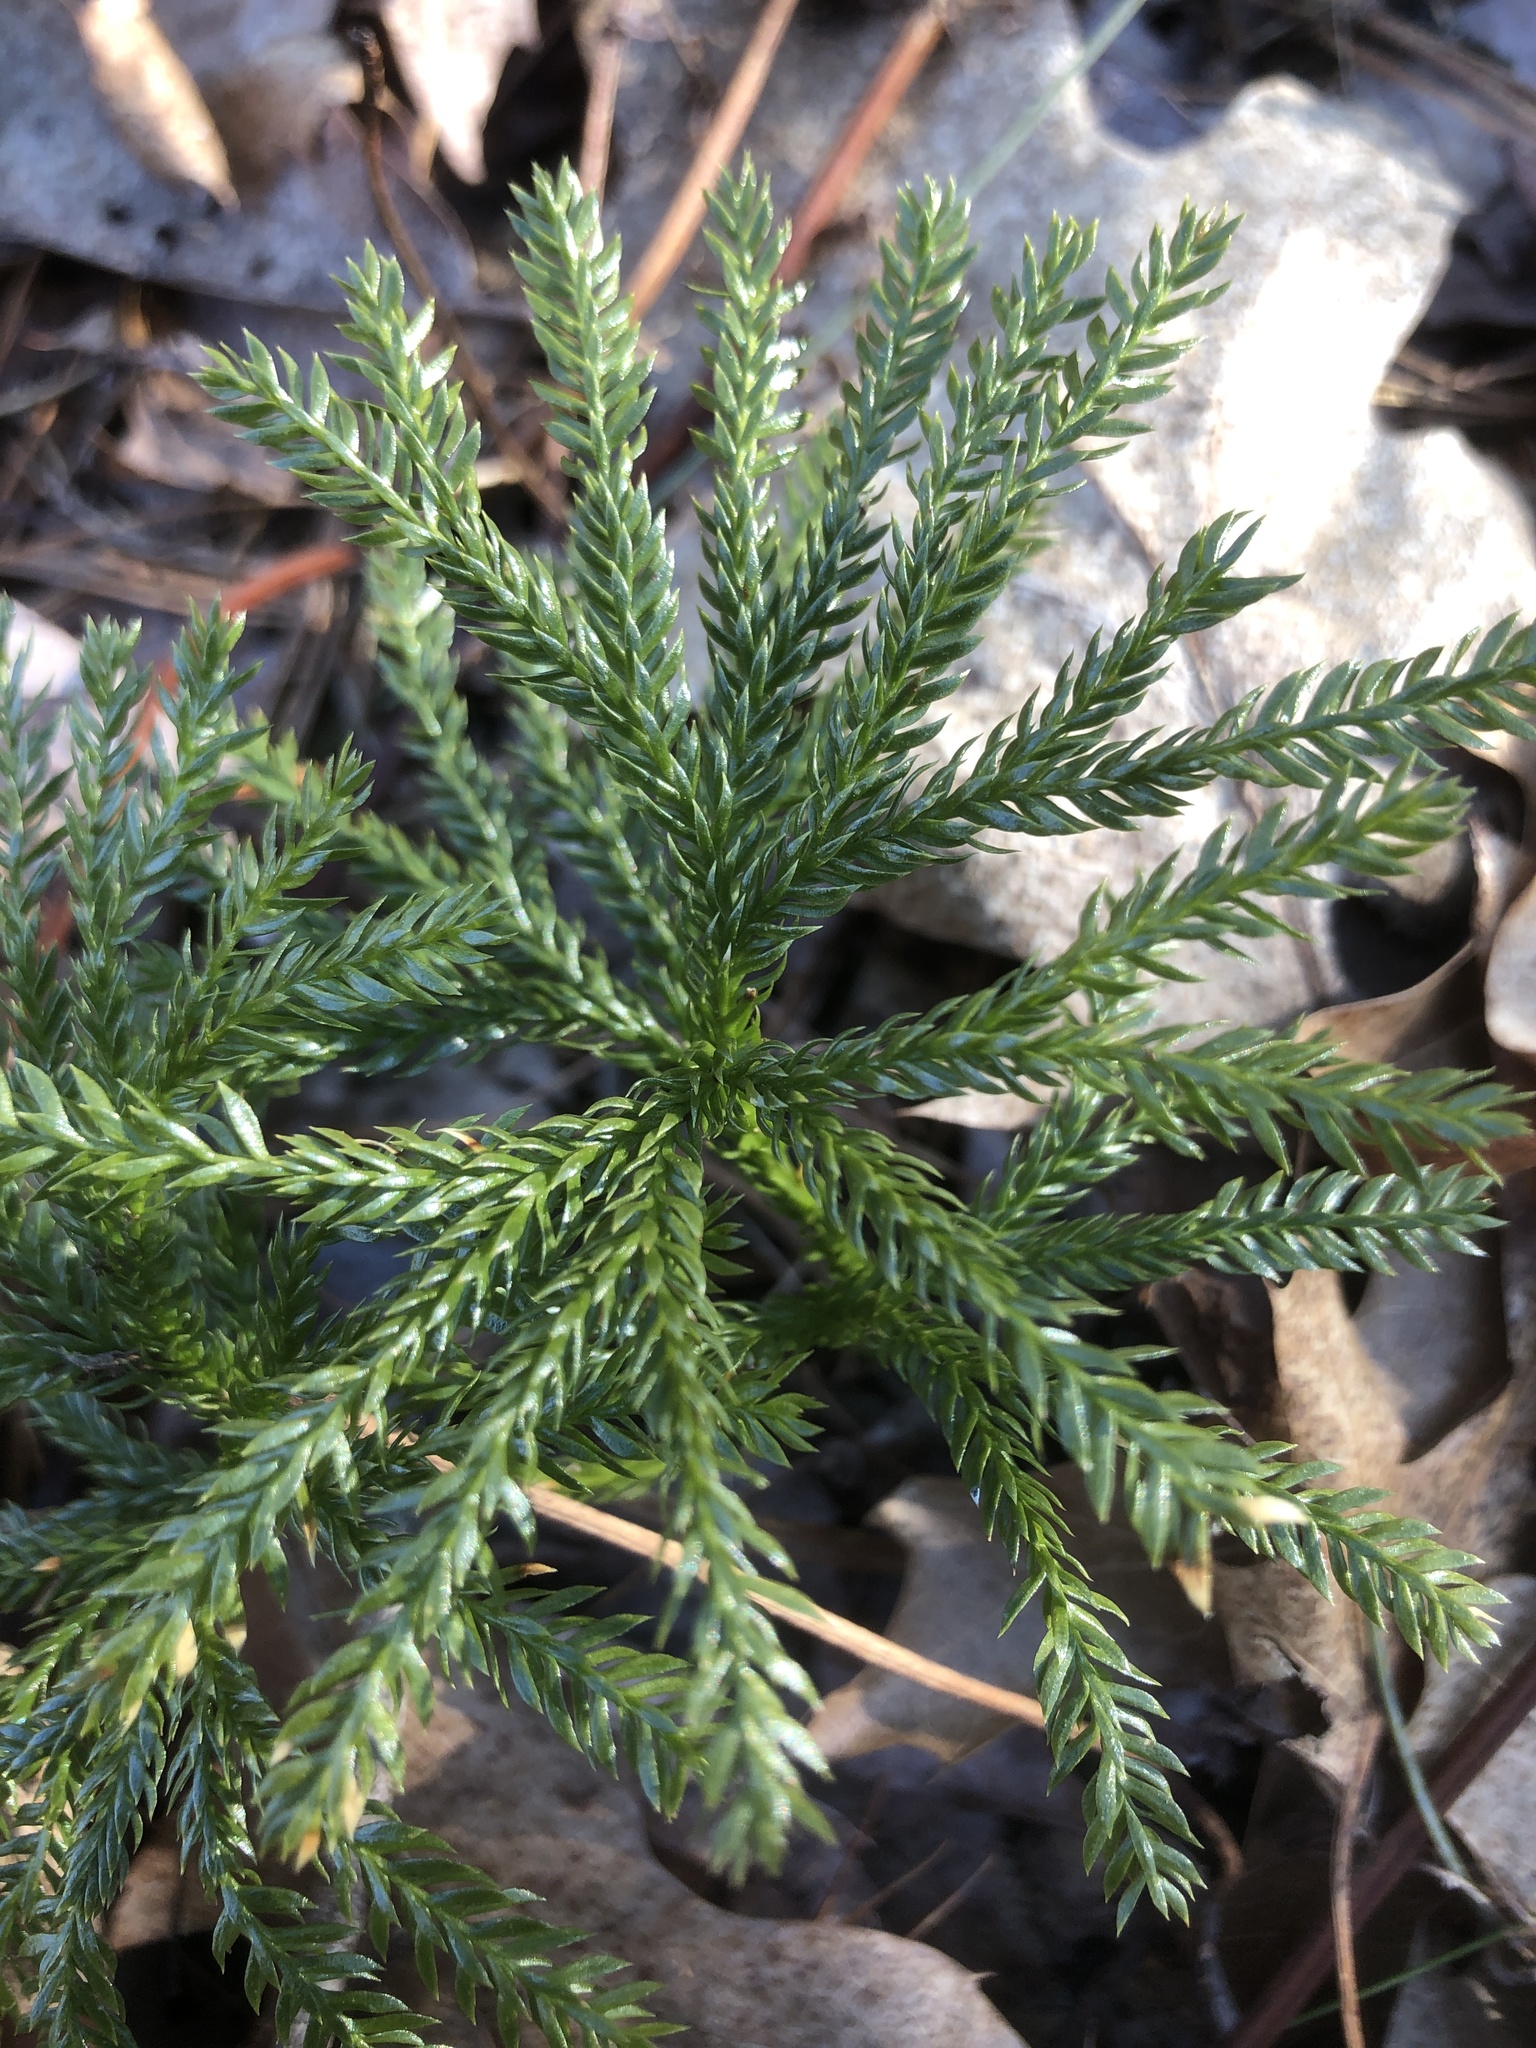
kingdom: Plantae
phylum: Tracheophyta
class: Lycopodiopsida
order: Lycopodiales
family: Lycopodiaceae
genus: Dendrolycopodium
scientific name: Dendrolycopodium obscurum
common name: Common ground-pine
